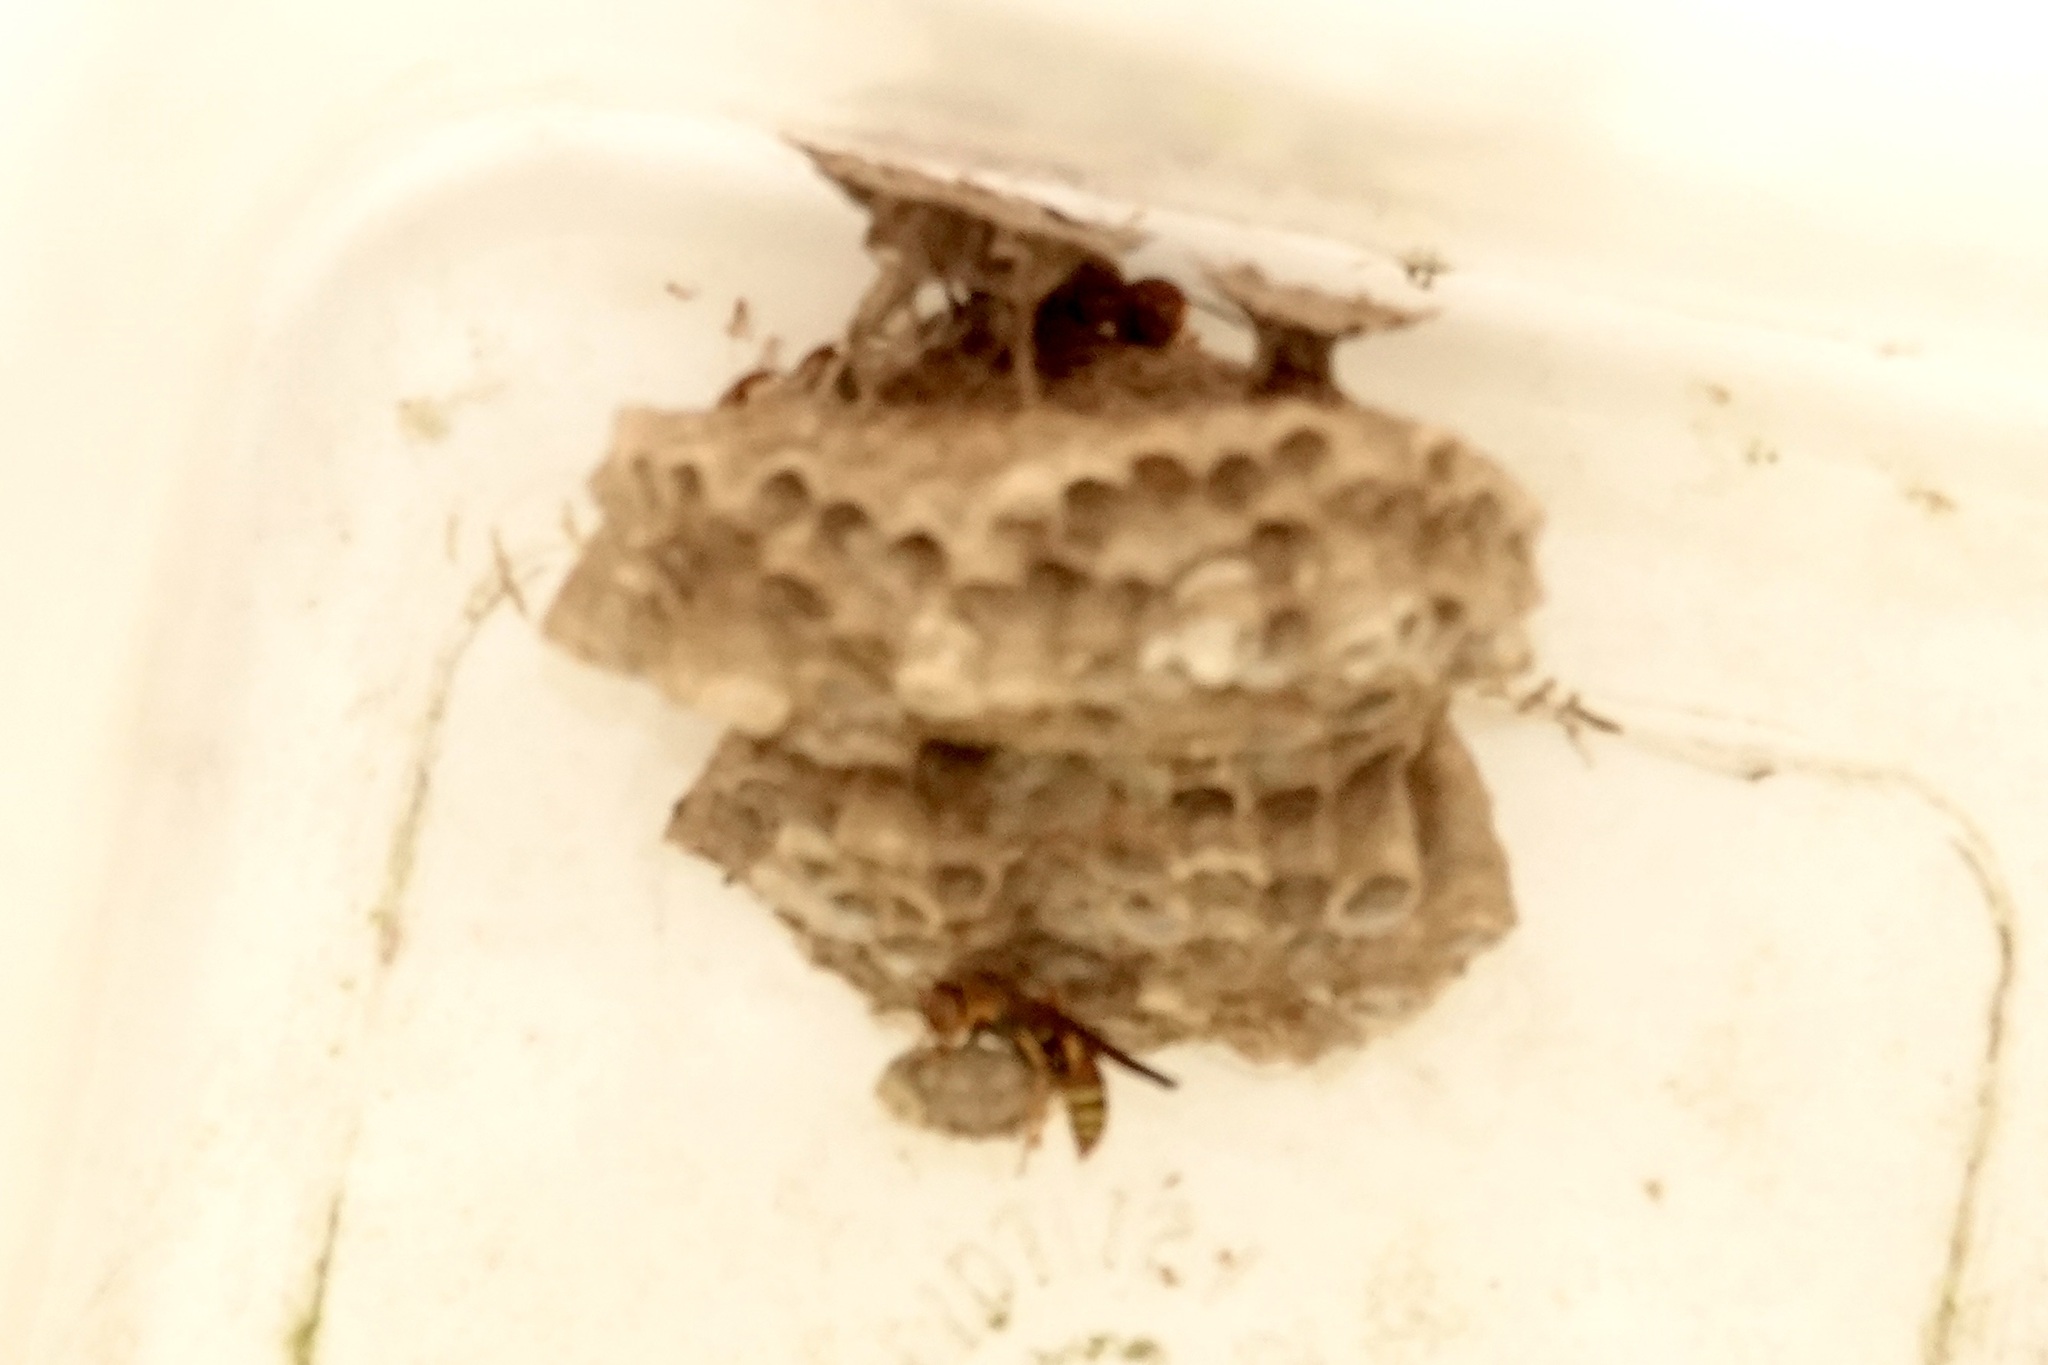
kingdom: Animalia
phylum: Arthropoda
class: Insecta
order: Hymenoptera
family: Eumenidae
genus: Polistes
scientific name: Polistes dorsalis
